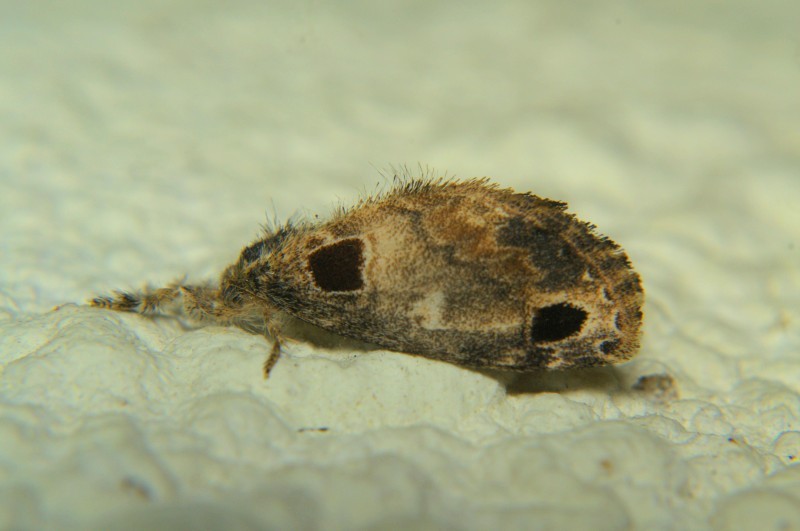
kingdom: Animalia
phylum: Arthropoda
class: Insecta
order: Lepidoptera
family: Erebidae
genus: Medama
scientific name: Medama diplaga
